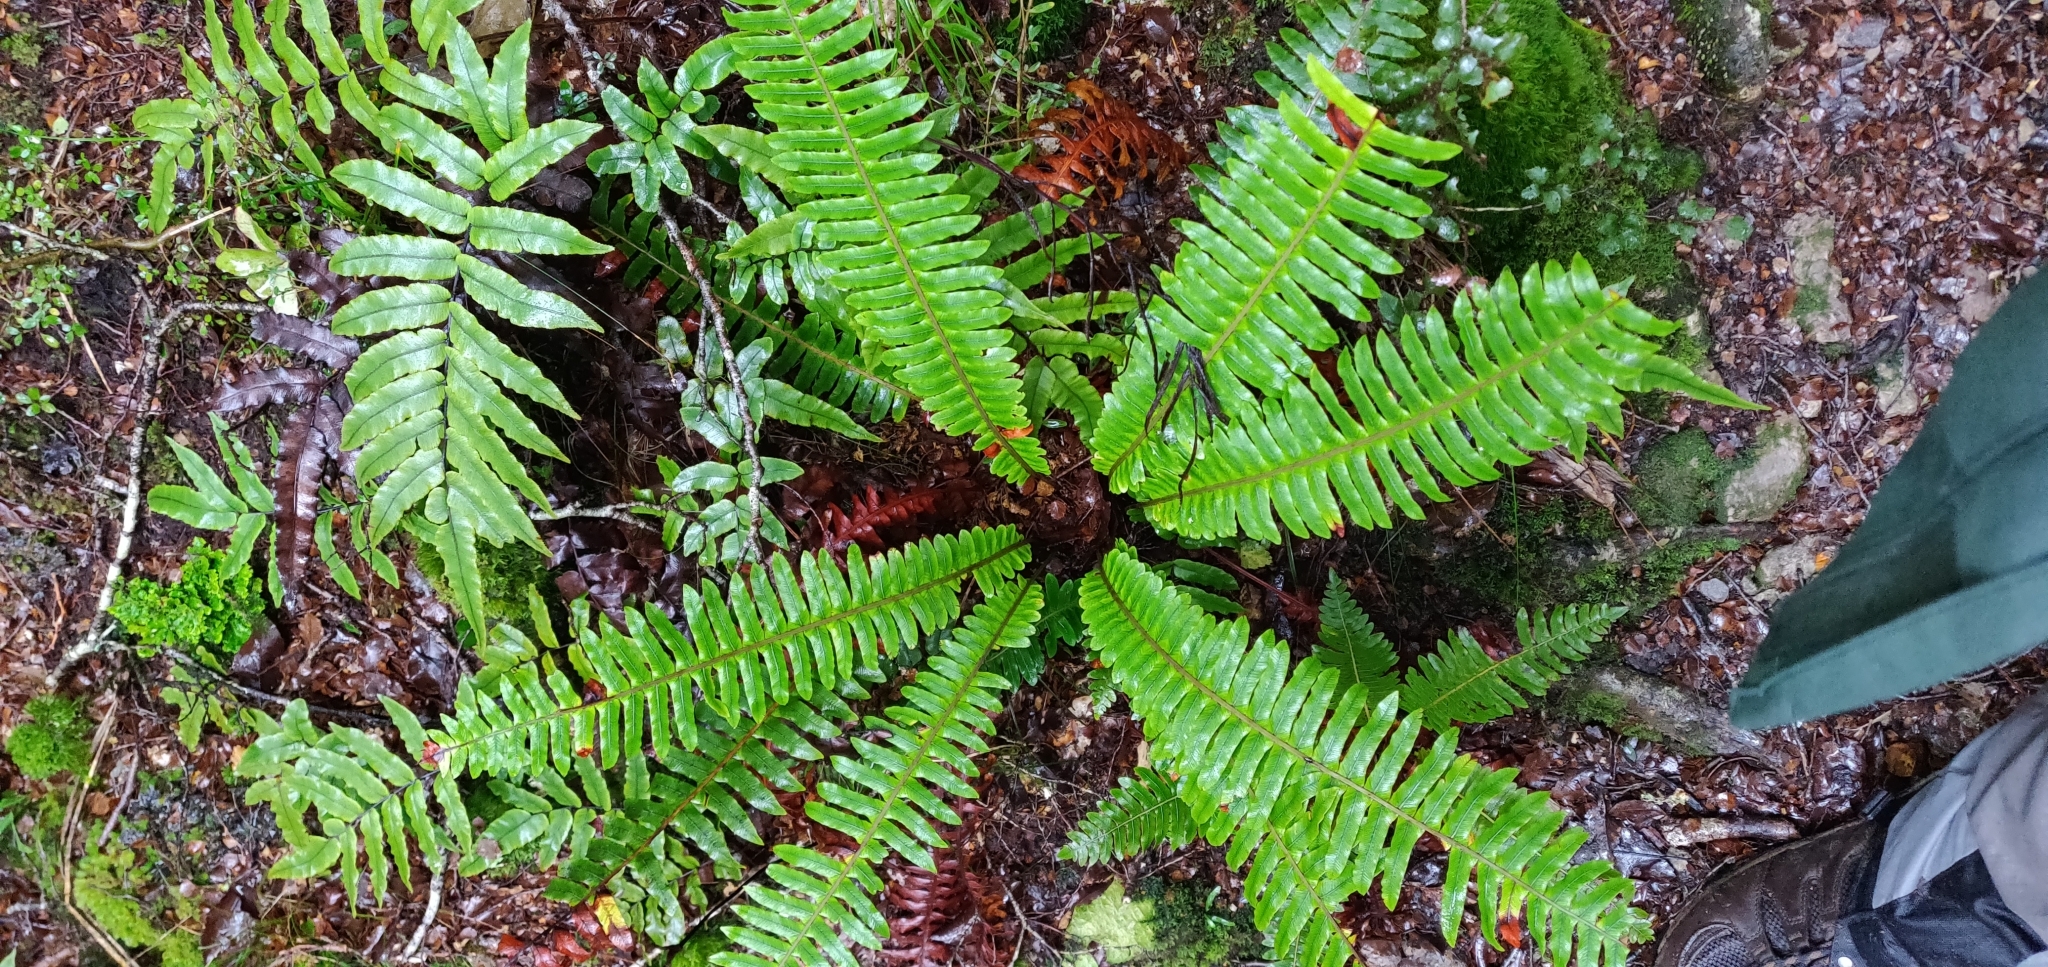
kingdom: Plantae
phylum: Tracheophyta
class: Polypodiopsida
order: Polypodiales
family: Blechnaceae
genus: Lomaria
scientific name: Lomaria discolor
